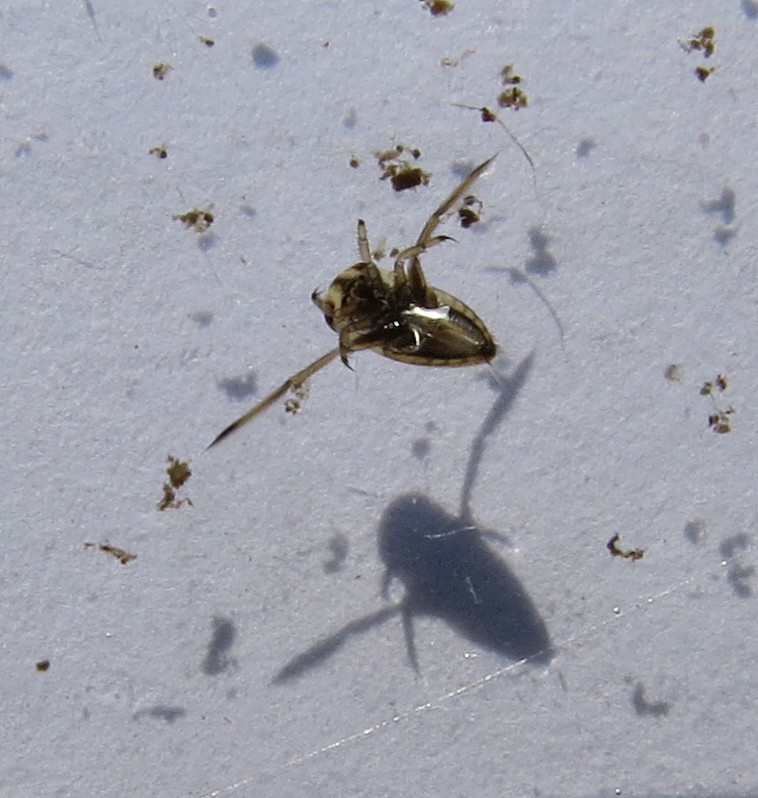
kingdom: Animalia
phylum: Arthropoda
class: Insecta
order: Hemiptera
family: Notonectidae
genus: Notonecta
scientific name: Notonecta
